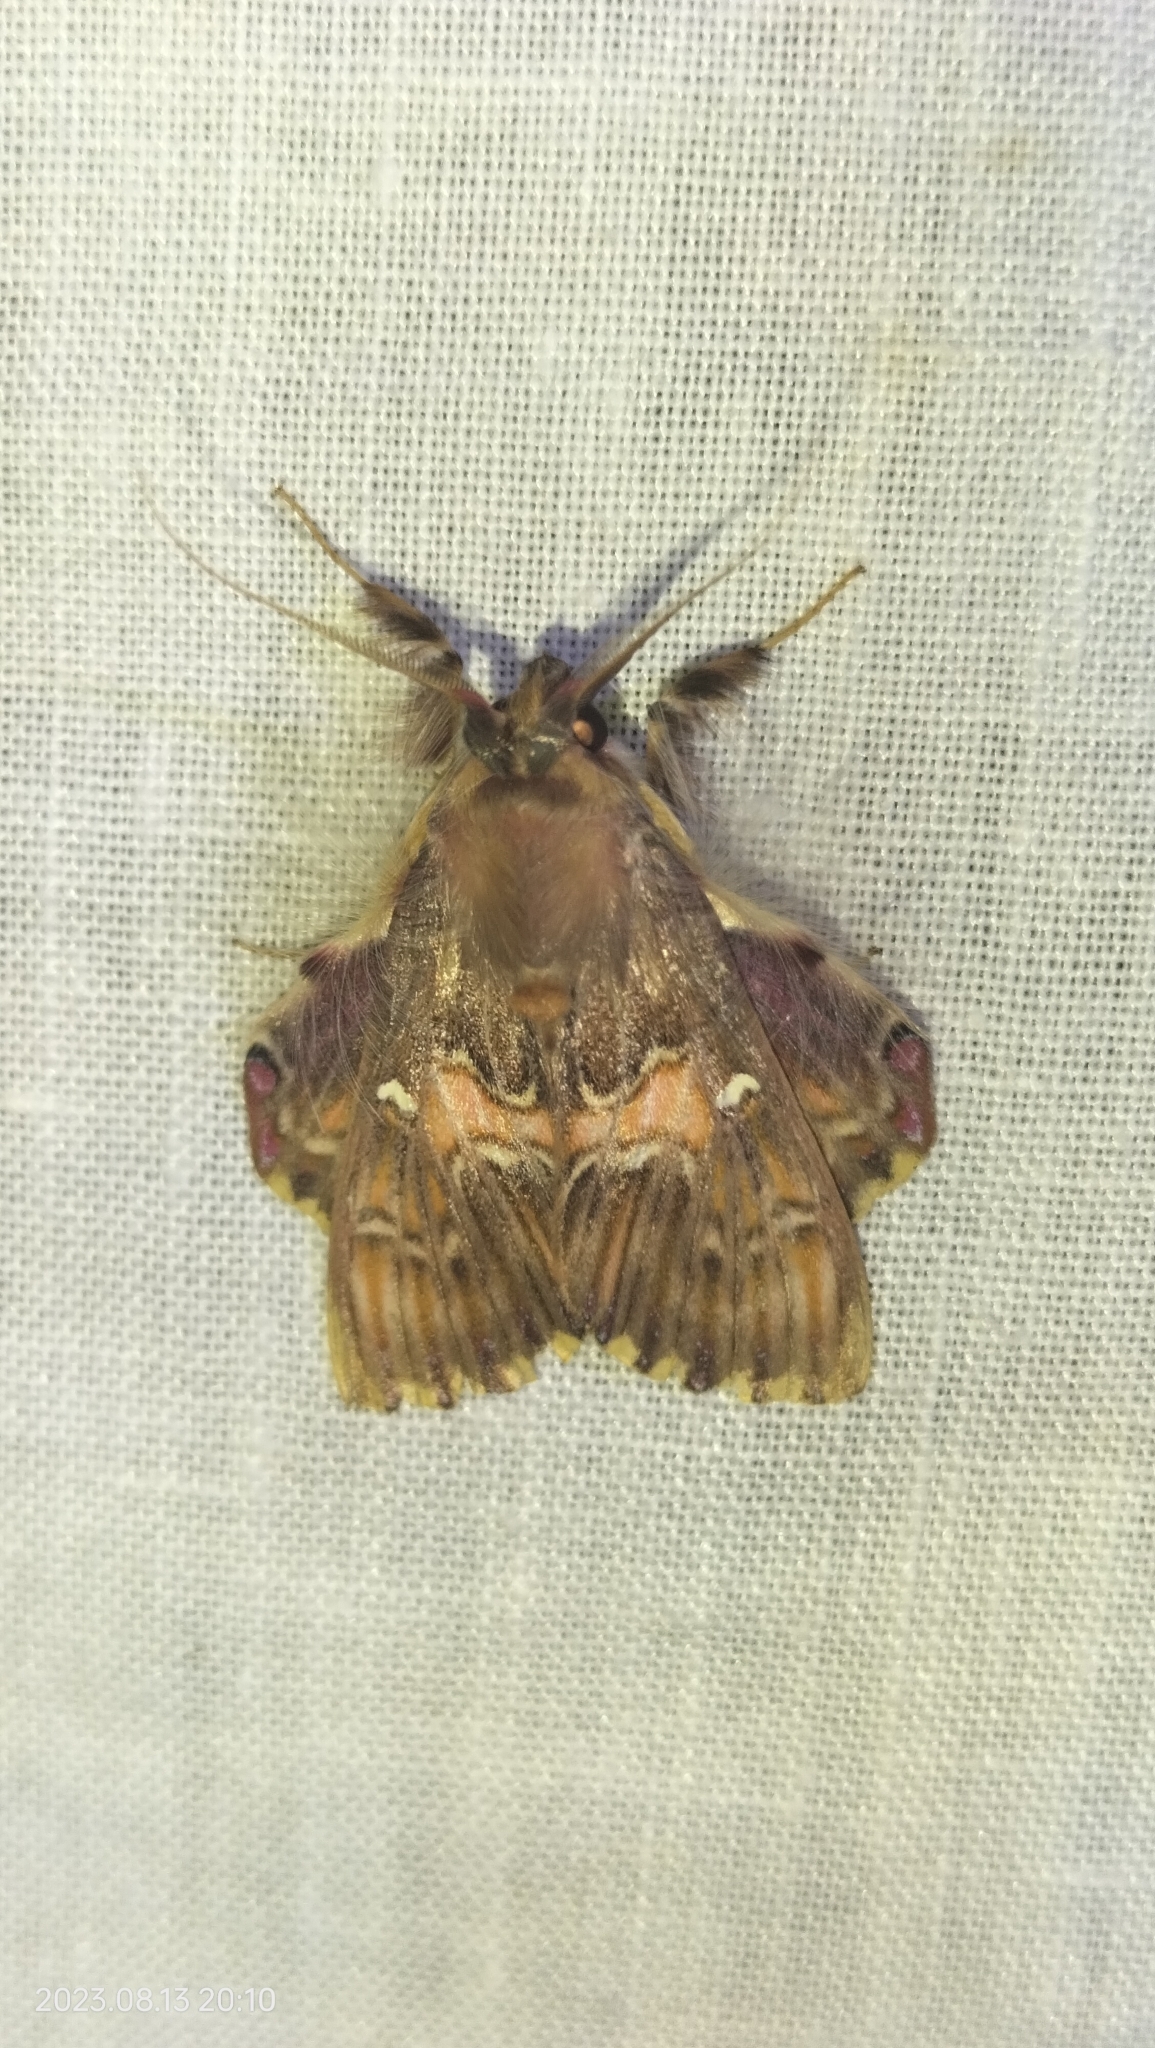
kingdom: Animalia
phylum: Arthropoda
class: Insecta
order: Lepidoptera
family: Erebidae
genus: Sosxetra
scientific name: Sosxetra grata
